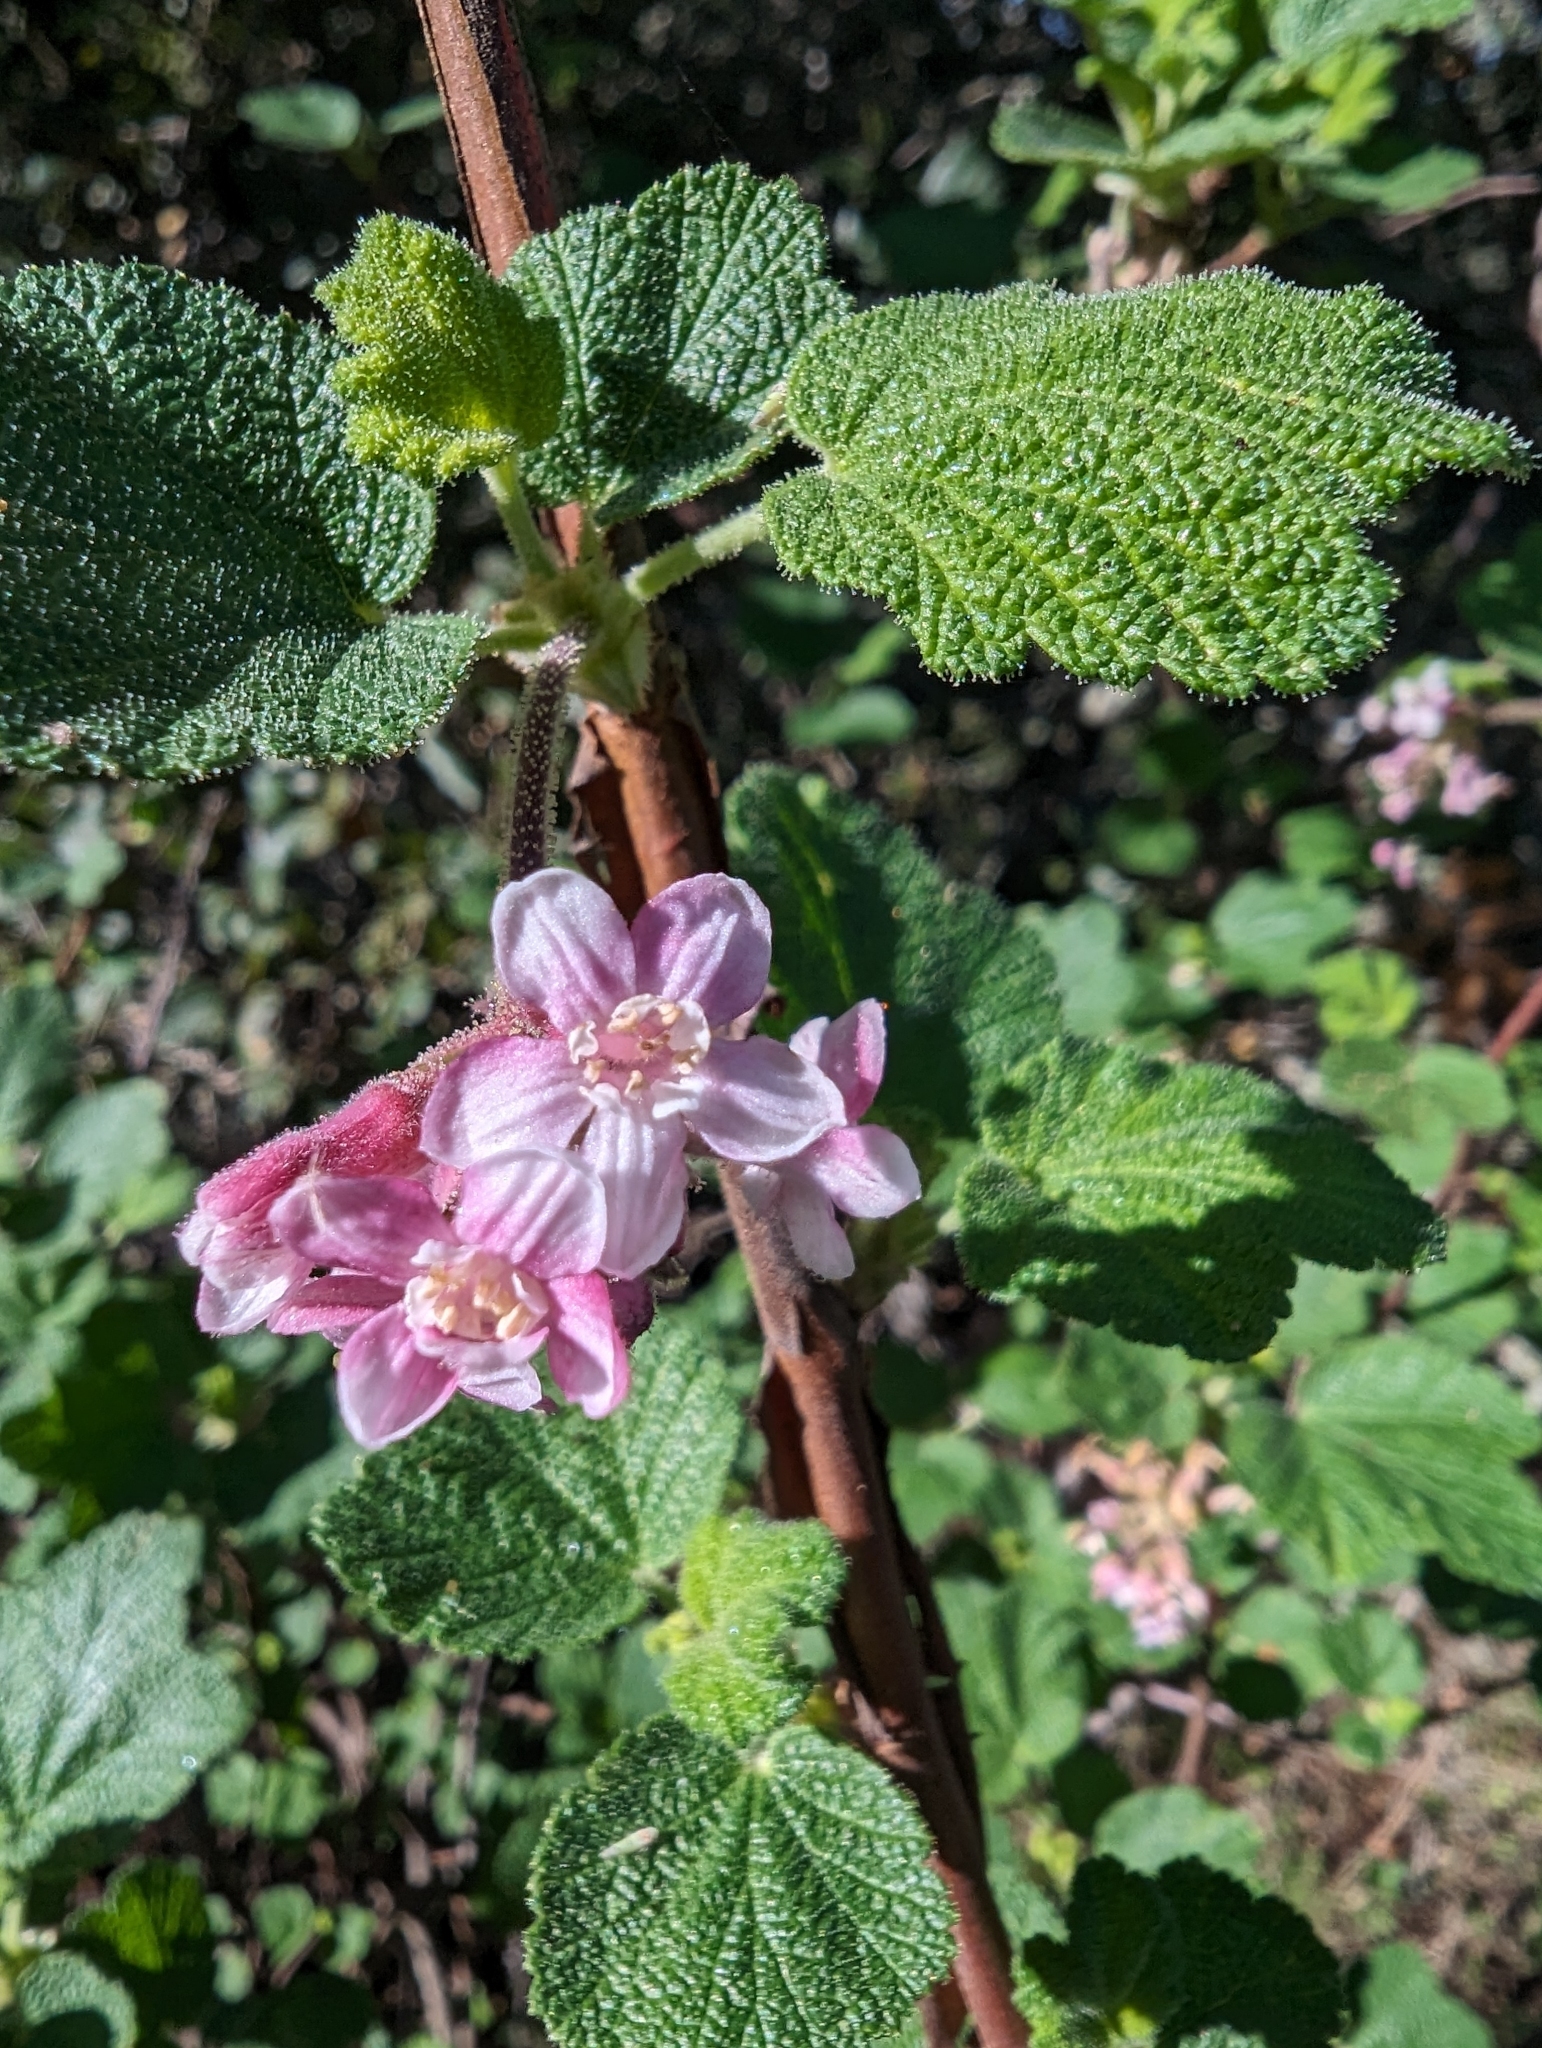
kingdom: Plantae
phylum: Tracheophyta
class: Magnoliopsida
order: Saxifragales
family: Grossulariaceae
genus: Ribes
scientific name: Ribes malvaceum
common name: Chaparral currant
